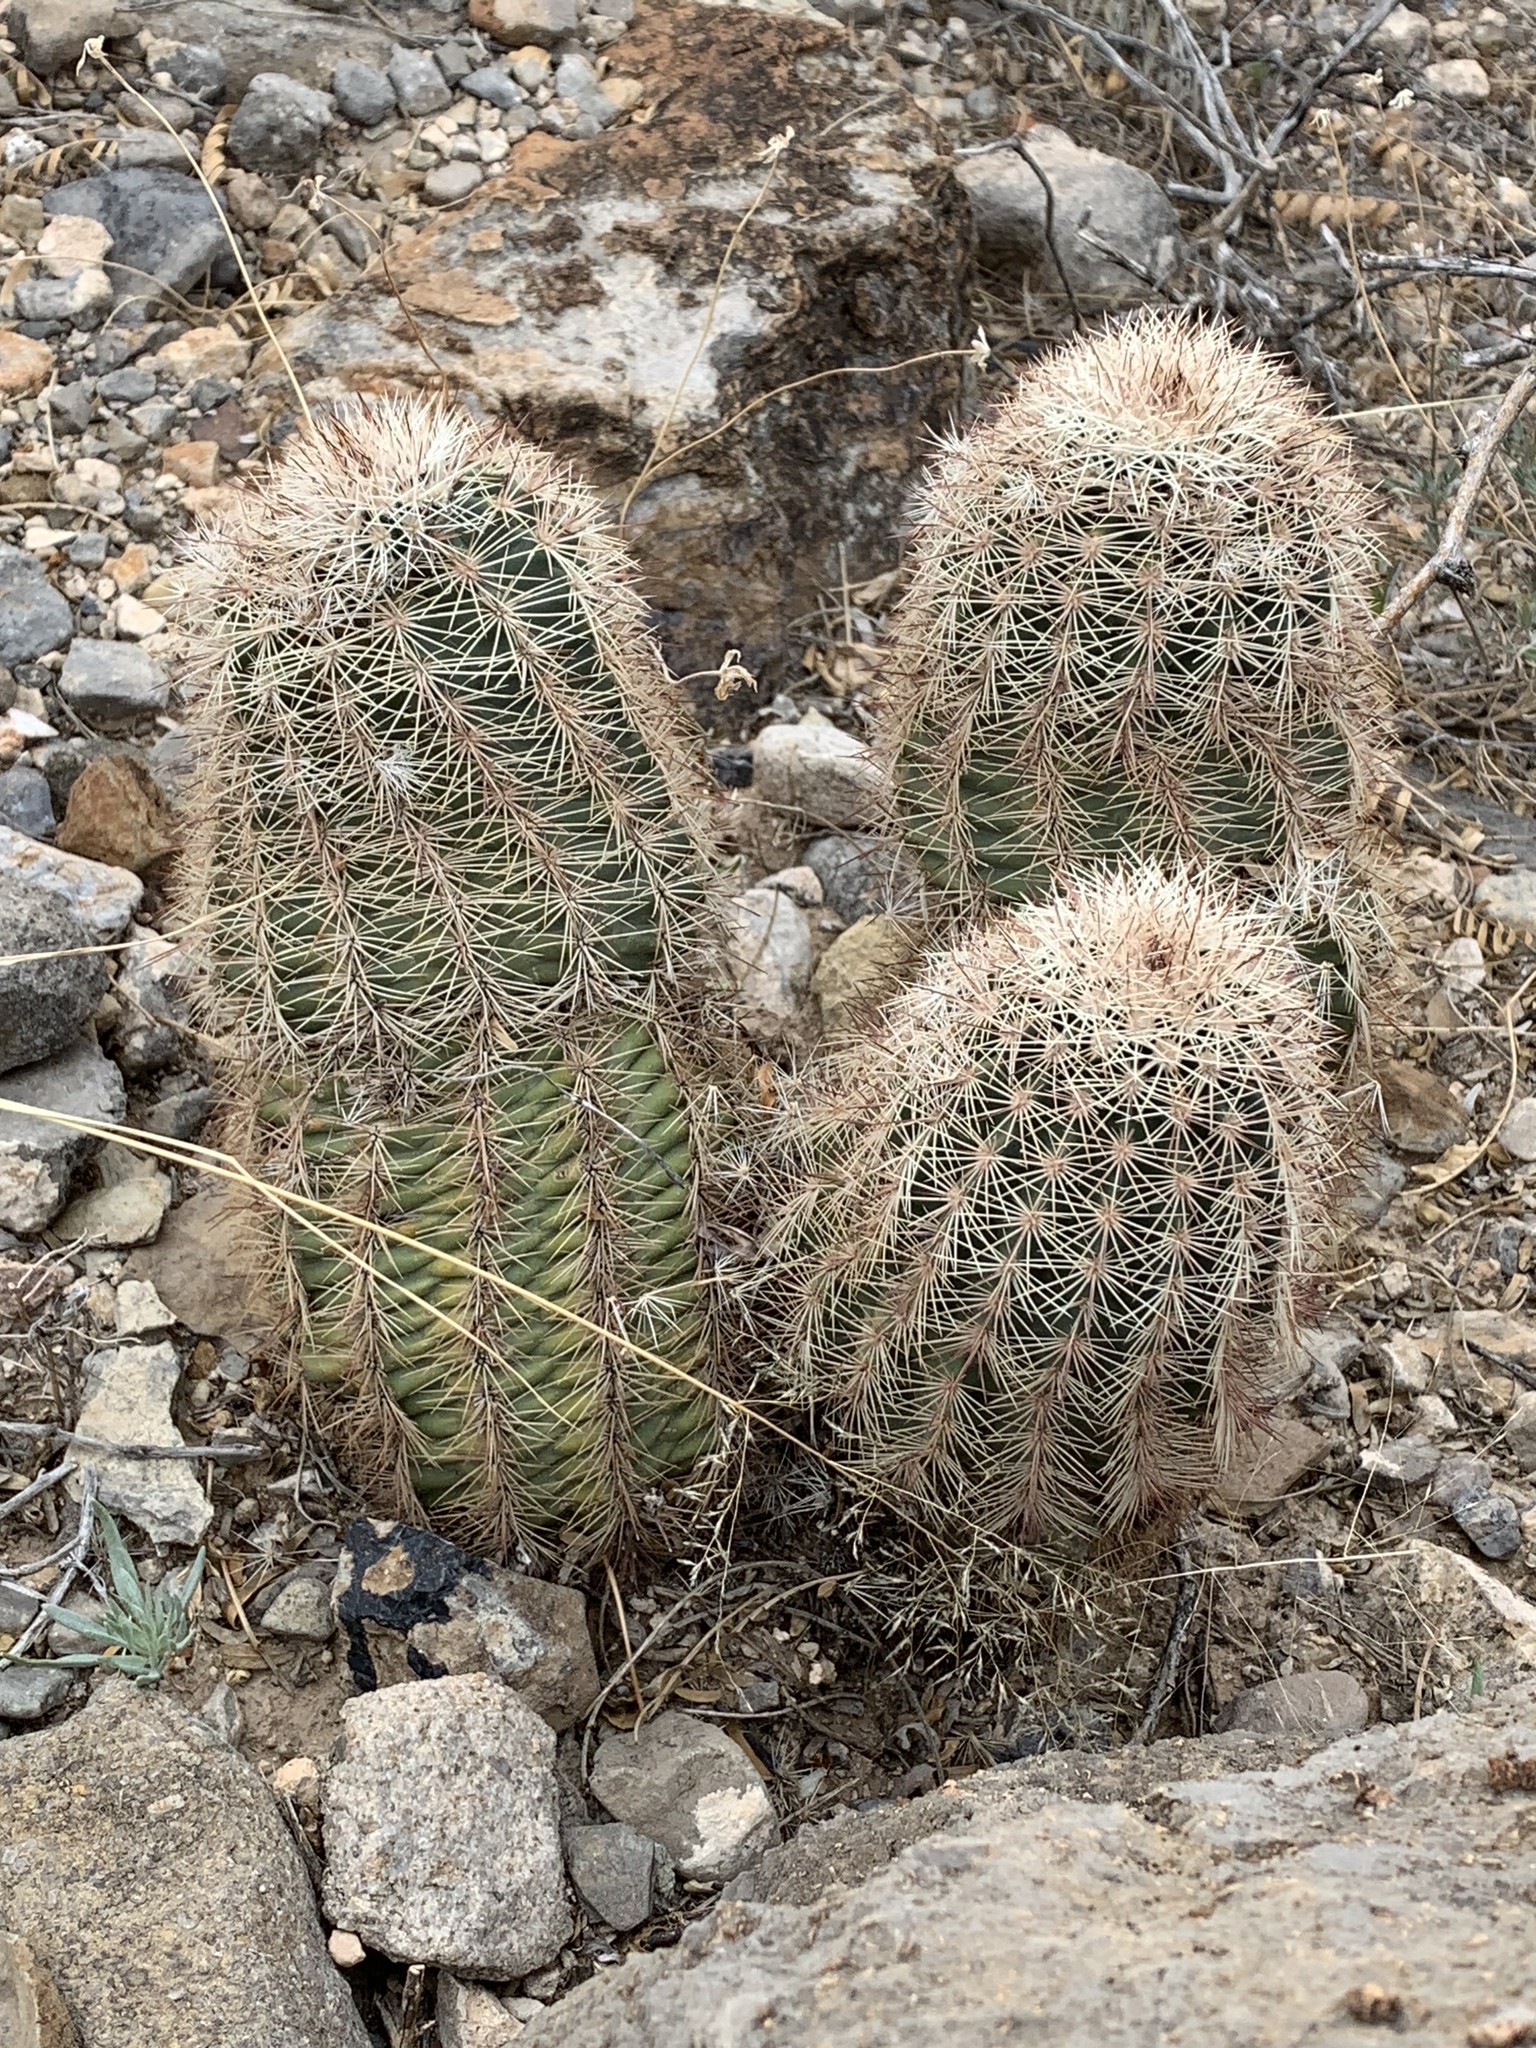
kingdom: Plantae
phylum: Tracheophyta
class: Magnoliopsida
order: Caryophyllales
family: Cactaceae
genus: Echinocereus
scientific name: Echinocereus dasyacanthus
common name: Spiny hedgehog cactus
